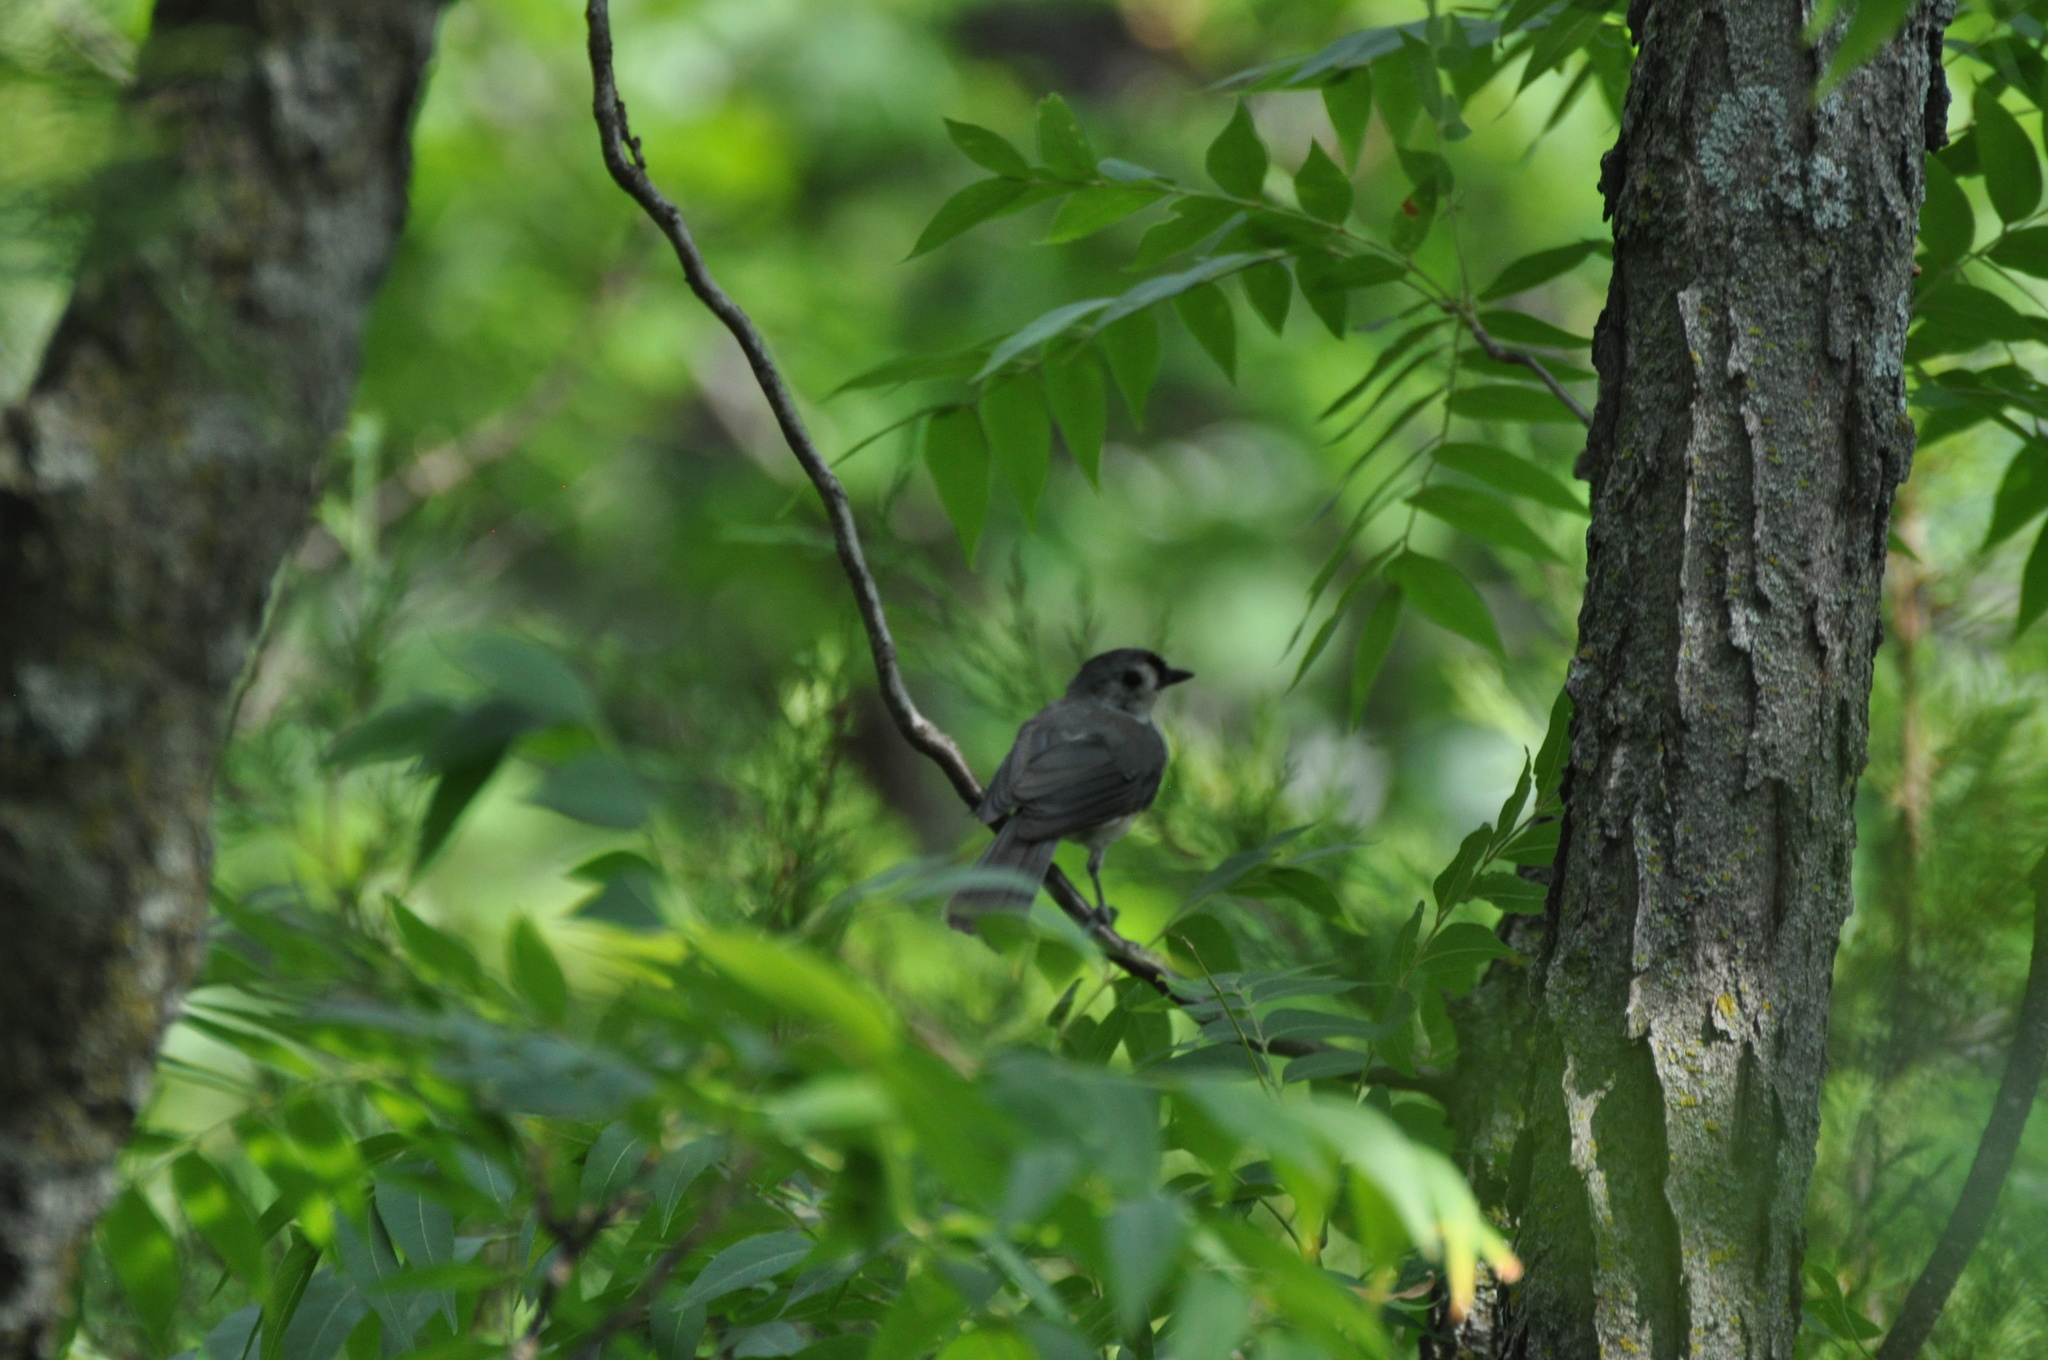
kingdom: Animalia
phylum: Chordata
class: Aves
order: Passeriformes
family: Paridae
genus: Baeolophus
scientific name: Baeolophus bicolor
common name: Tufted titmouse
